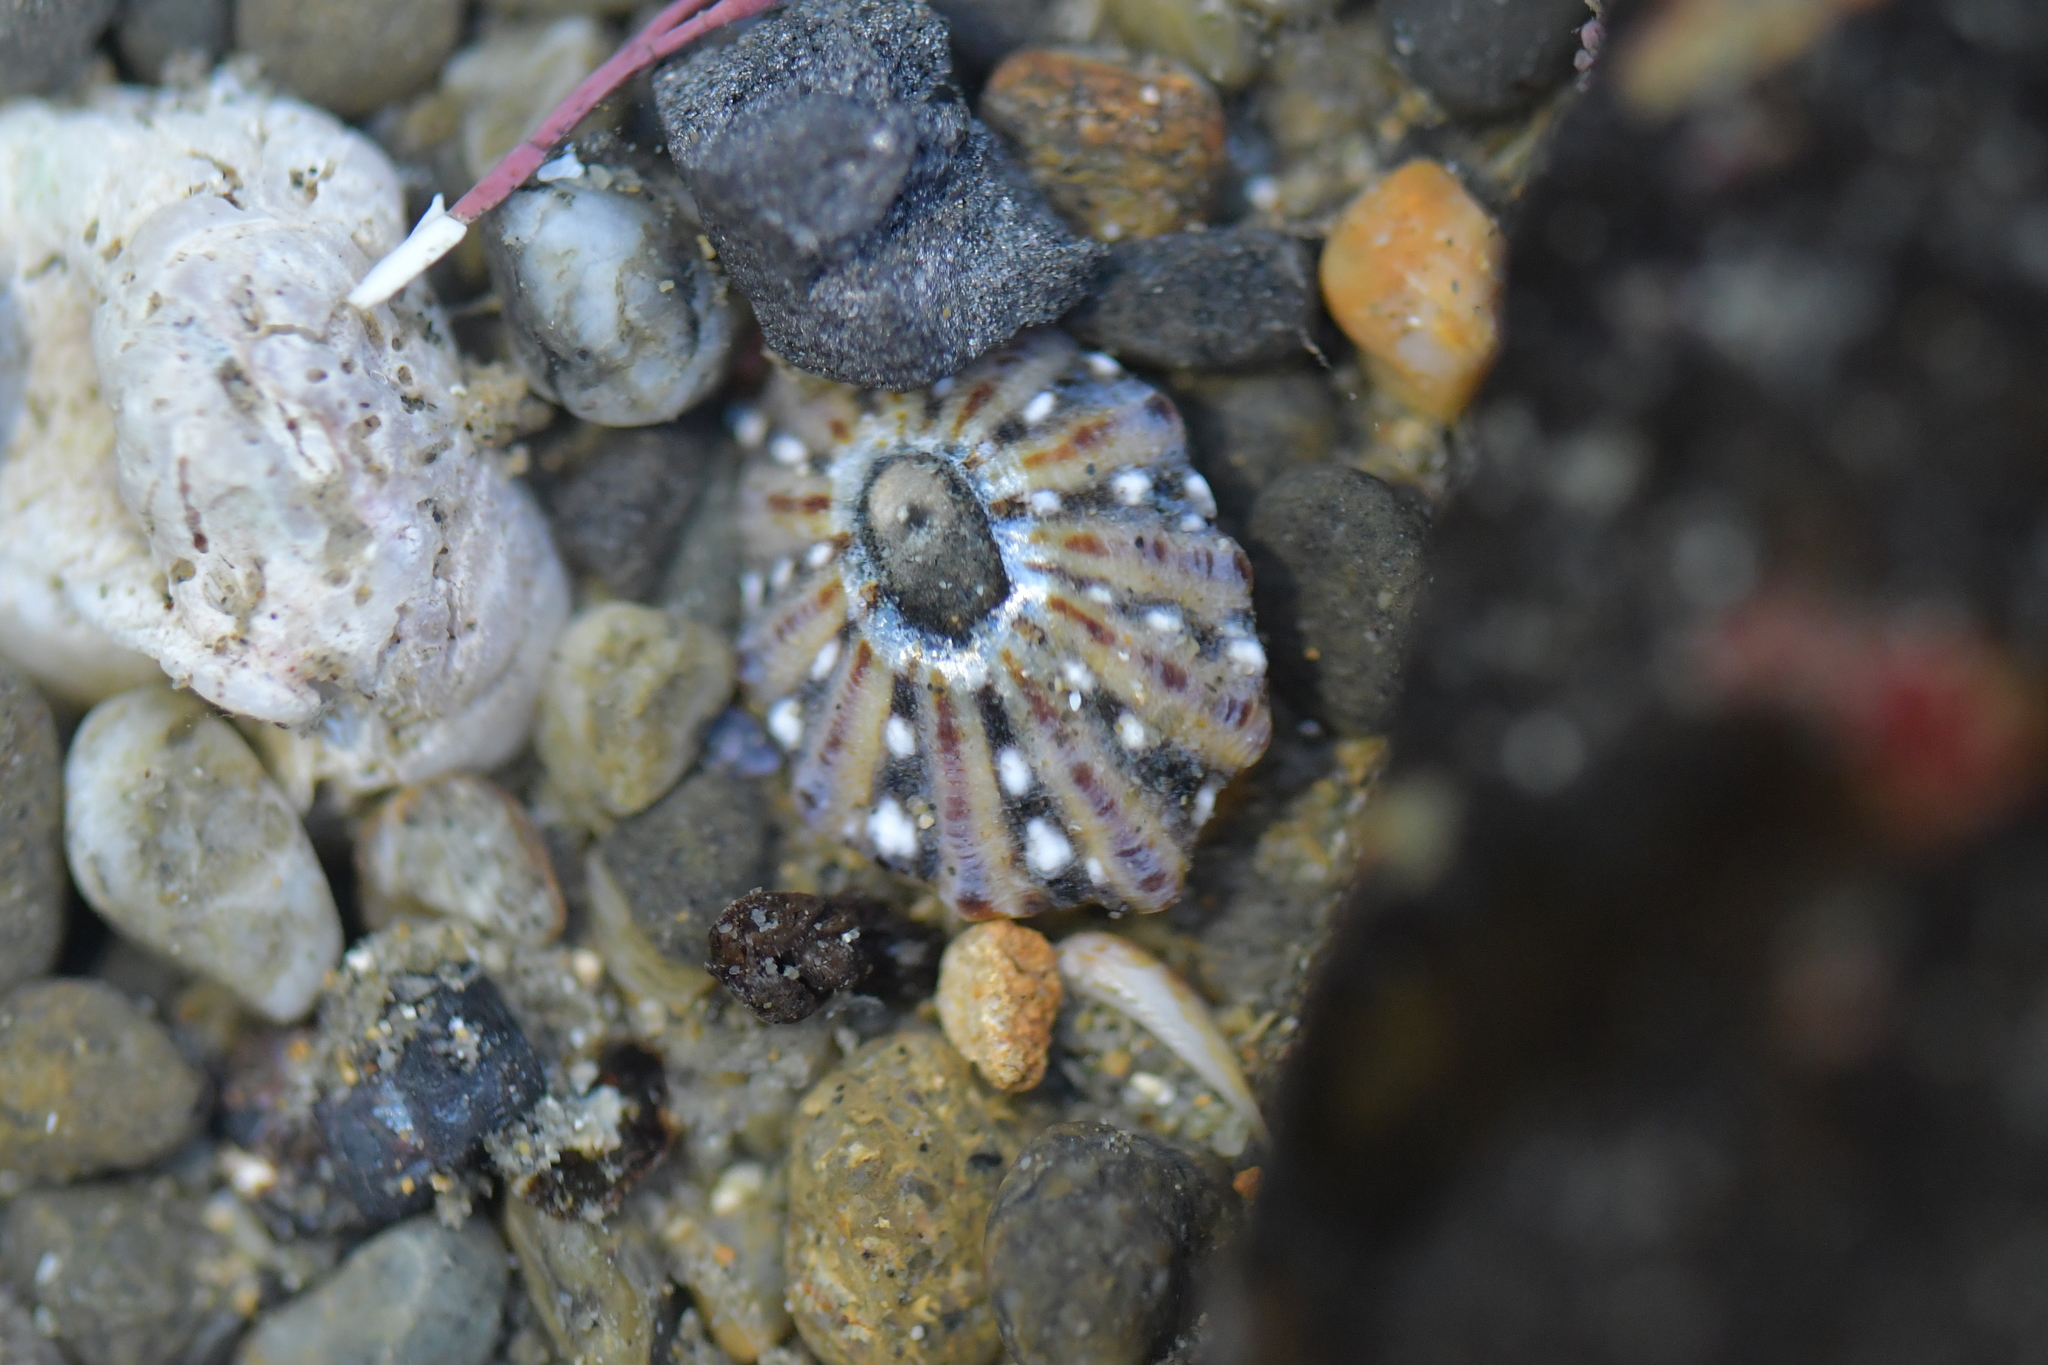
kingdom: Animalia
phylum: Mollusca
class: Gastropoda
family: Nacellidae
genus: Cellana
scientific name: Cellana ornata
